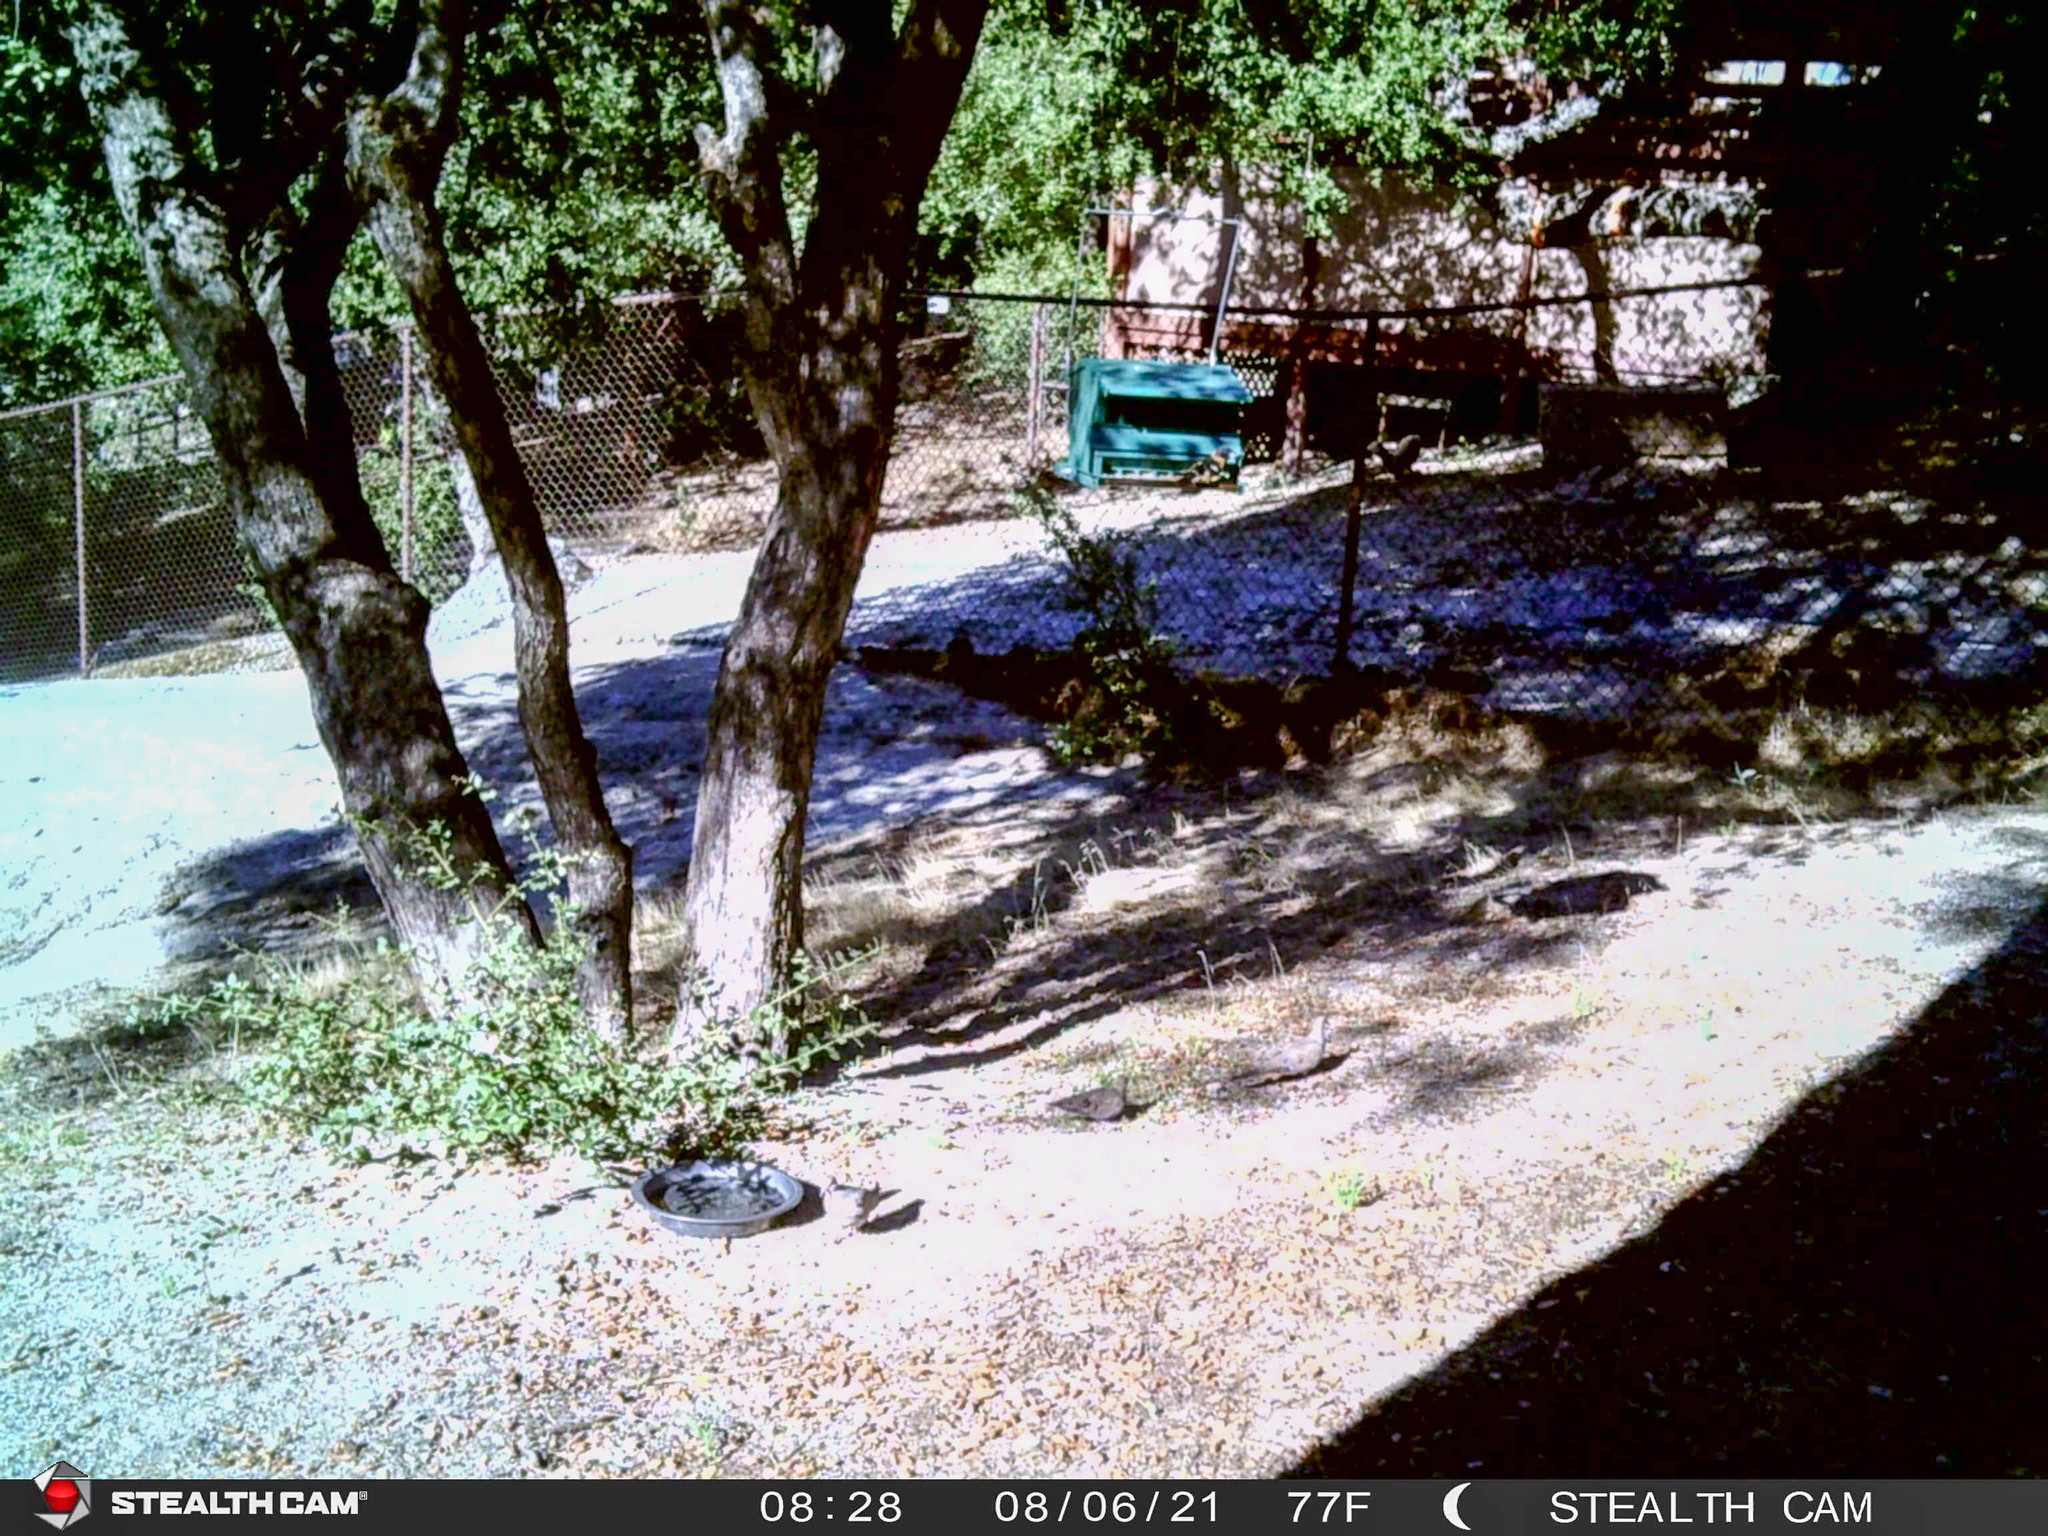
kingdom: Animalia
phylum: Chordata
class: Aves
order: Columbiformes
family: Columbidae
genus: Zenaida
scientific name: Zenaida macroura
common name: Mourning dove
